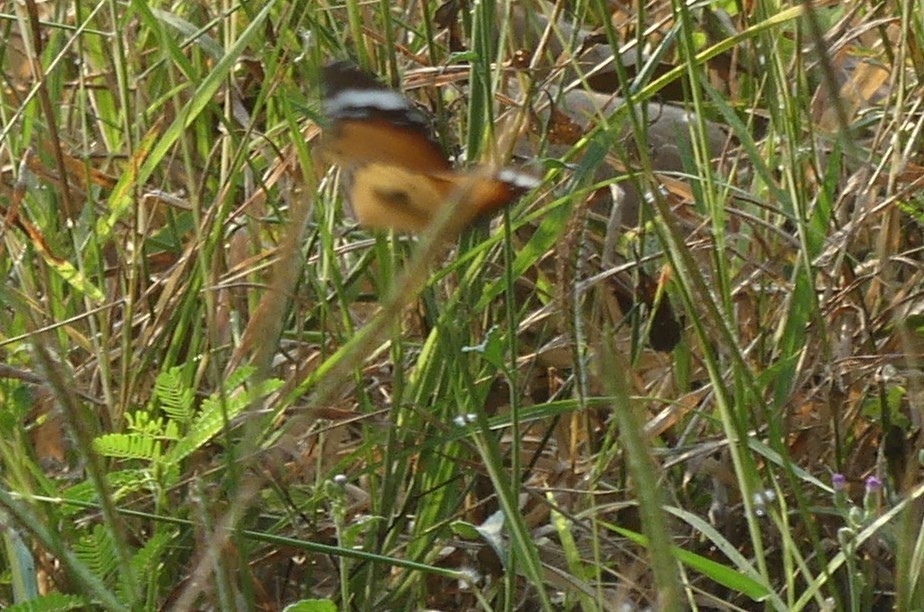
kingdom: Animalia
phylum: Arthropoda
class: Insecta
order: Lepidoptera
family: Nymphalidae
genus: Danaus
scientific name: Danaus chrysippus
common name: Plain tiger
